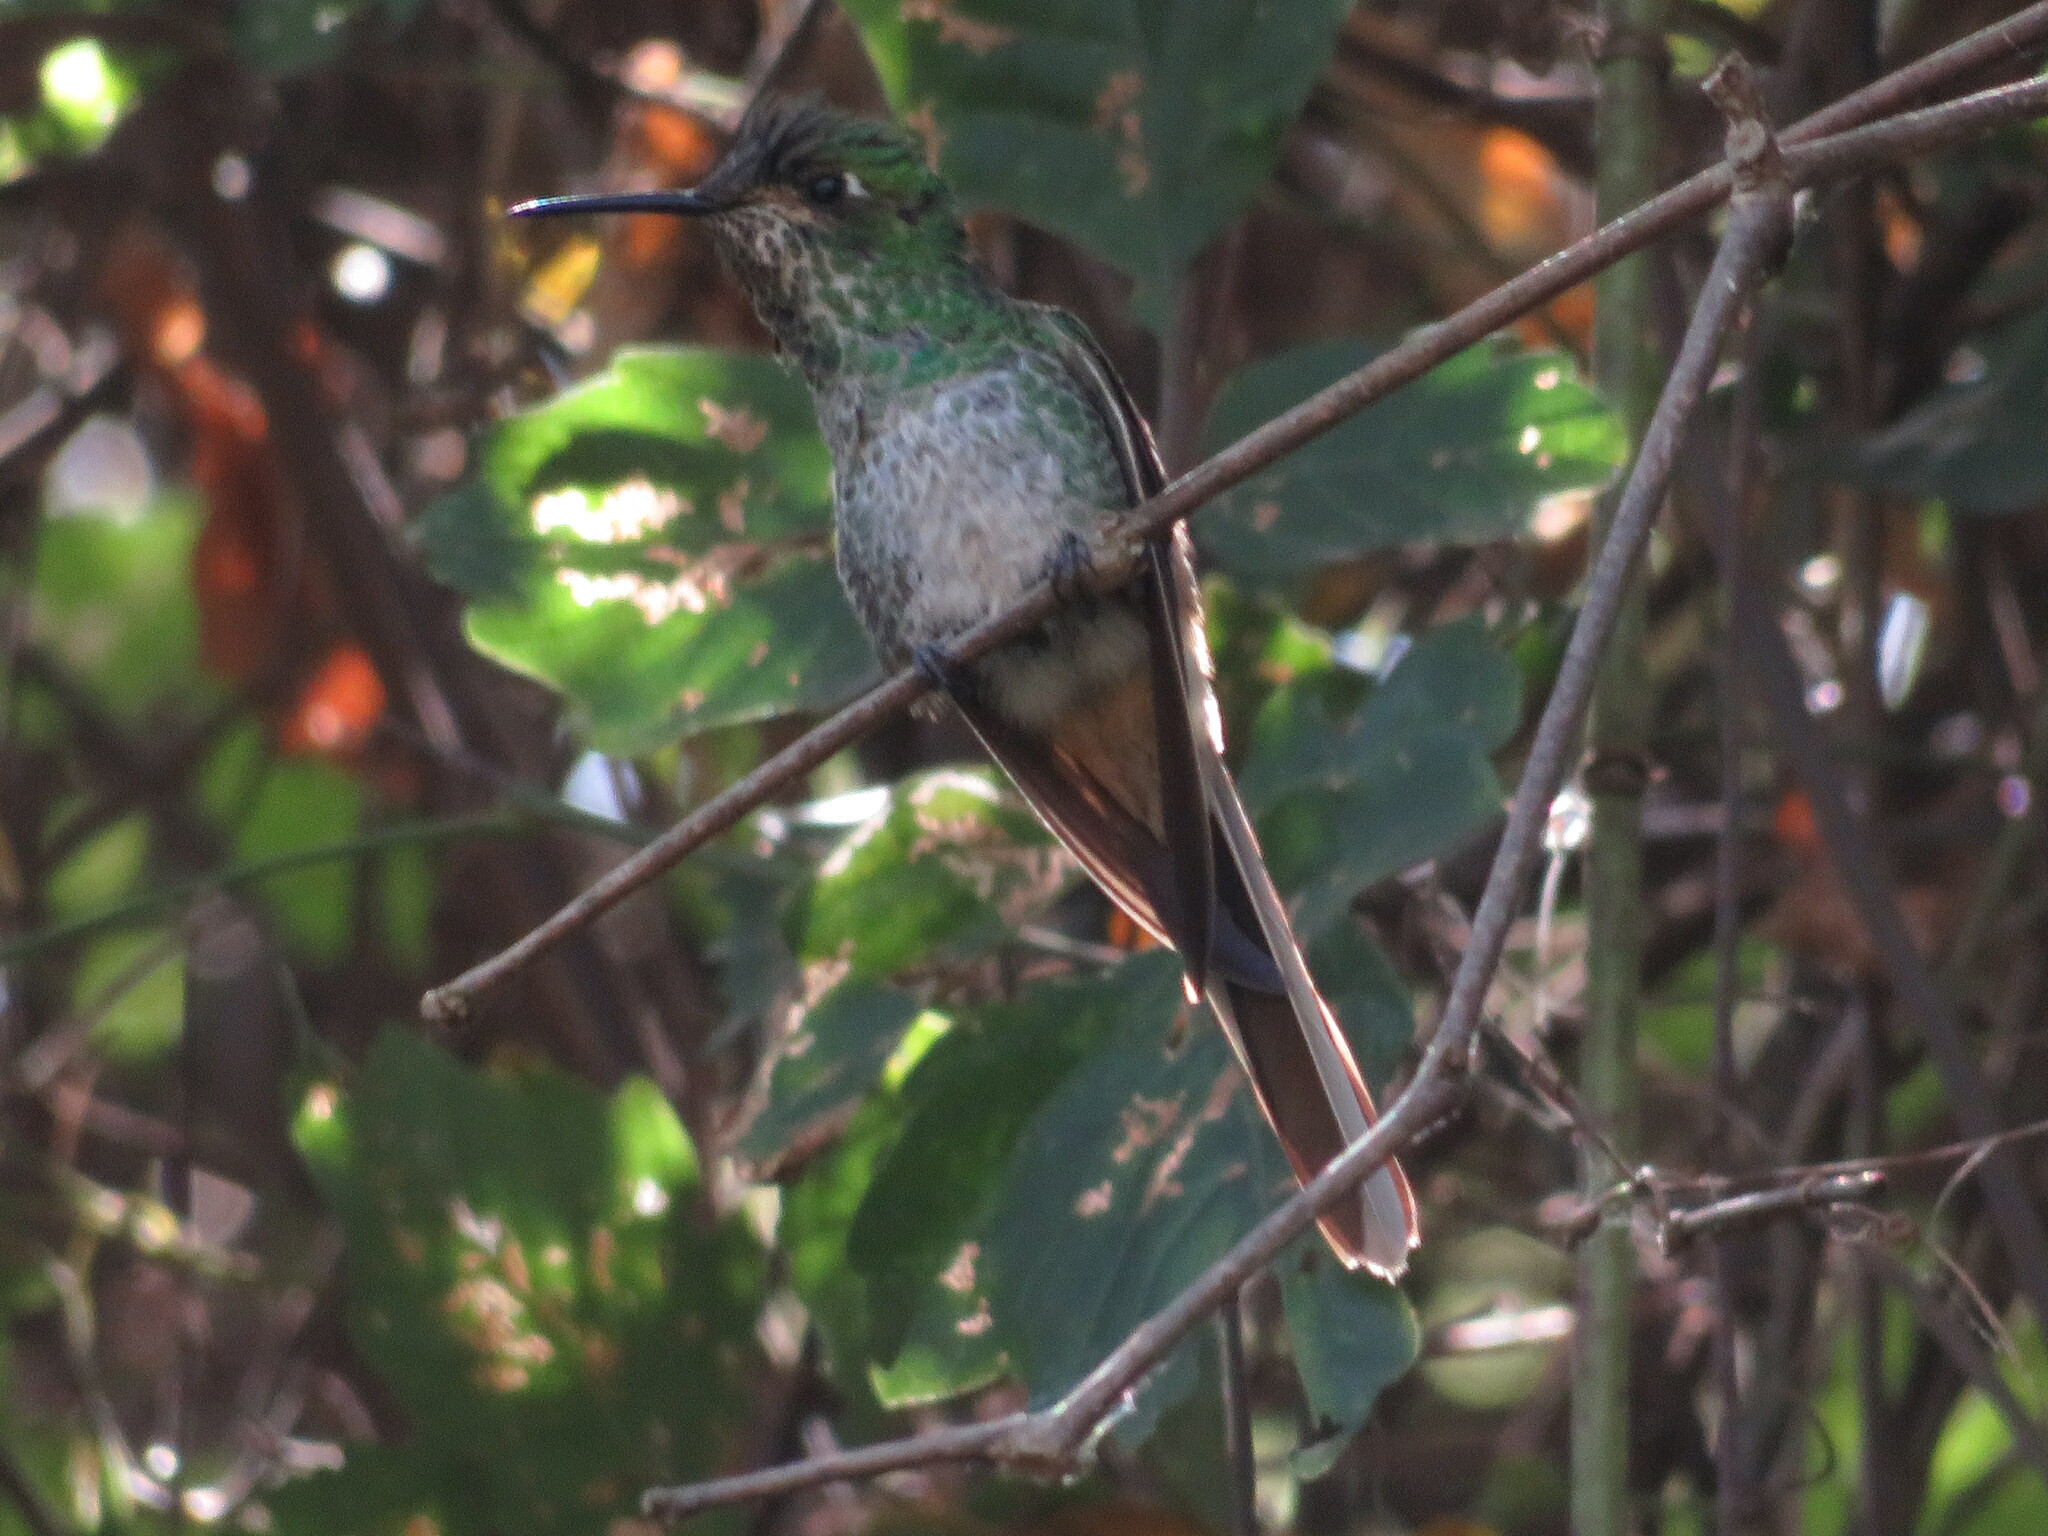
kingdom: Animalia
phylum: Chordata
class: Aves
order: Apodiformes
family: Trochilidae
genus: Sappho
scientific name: Sappho sparganurus
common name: Red-tailed comet
